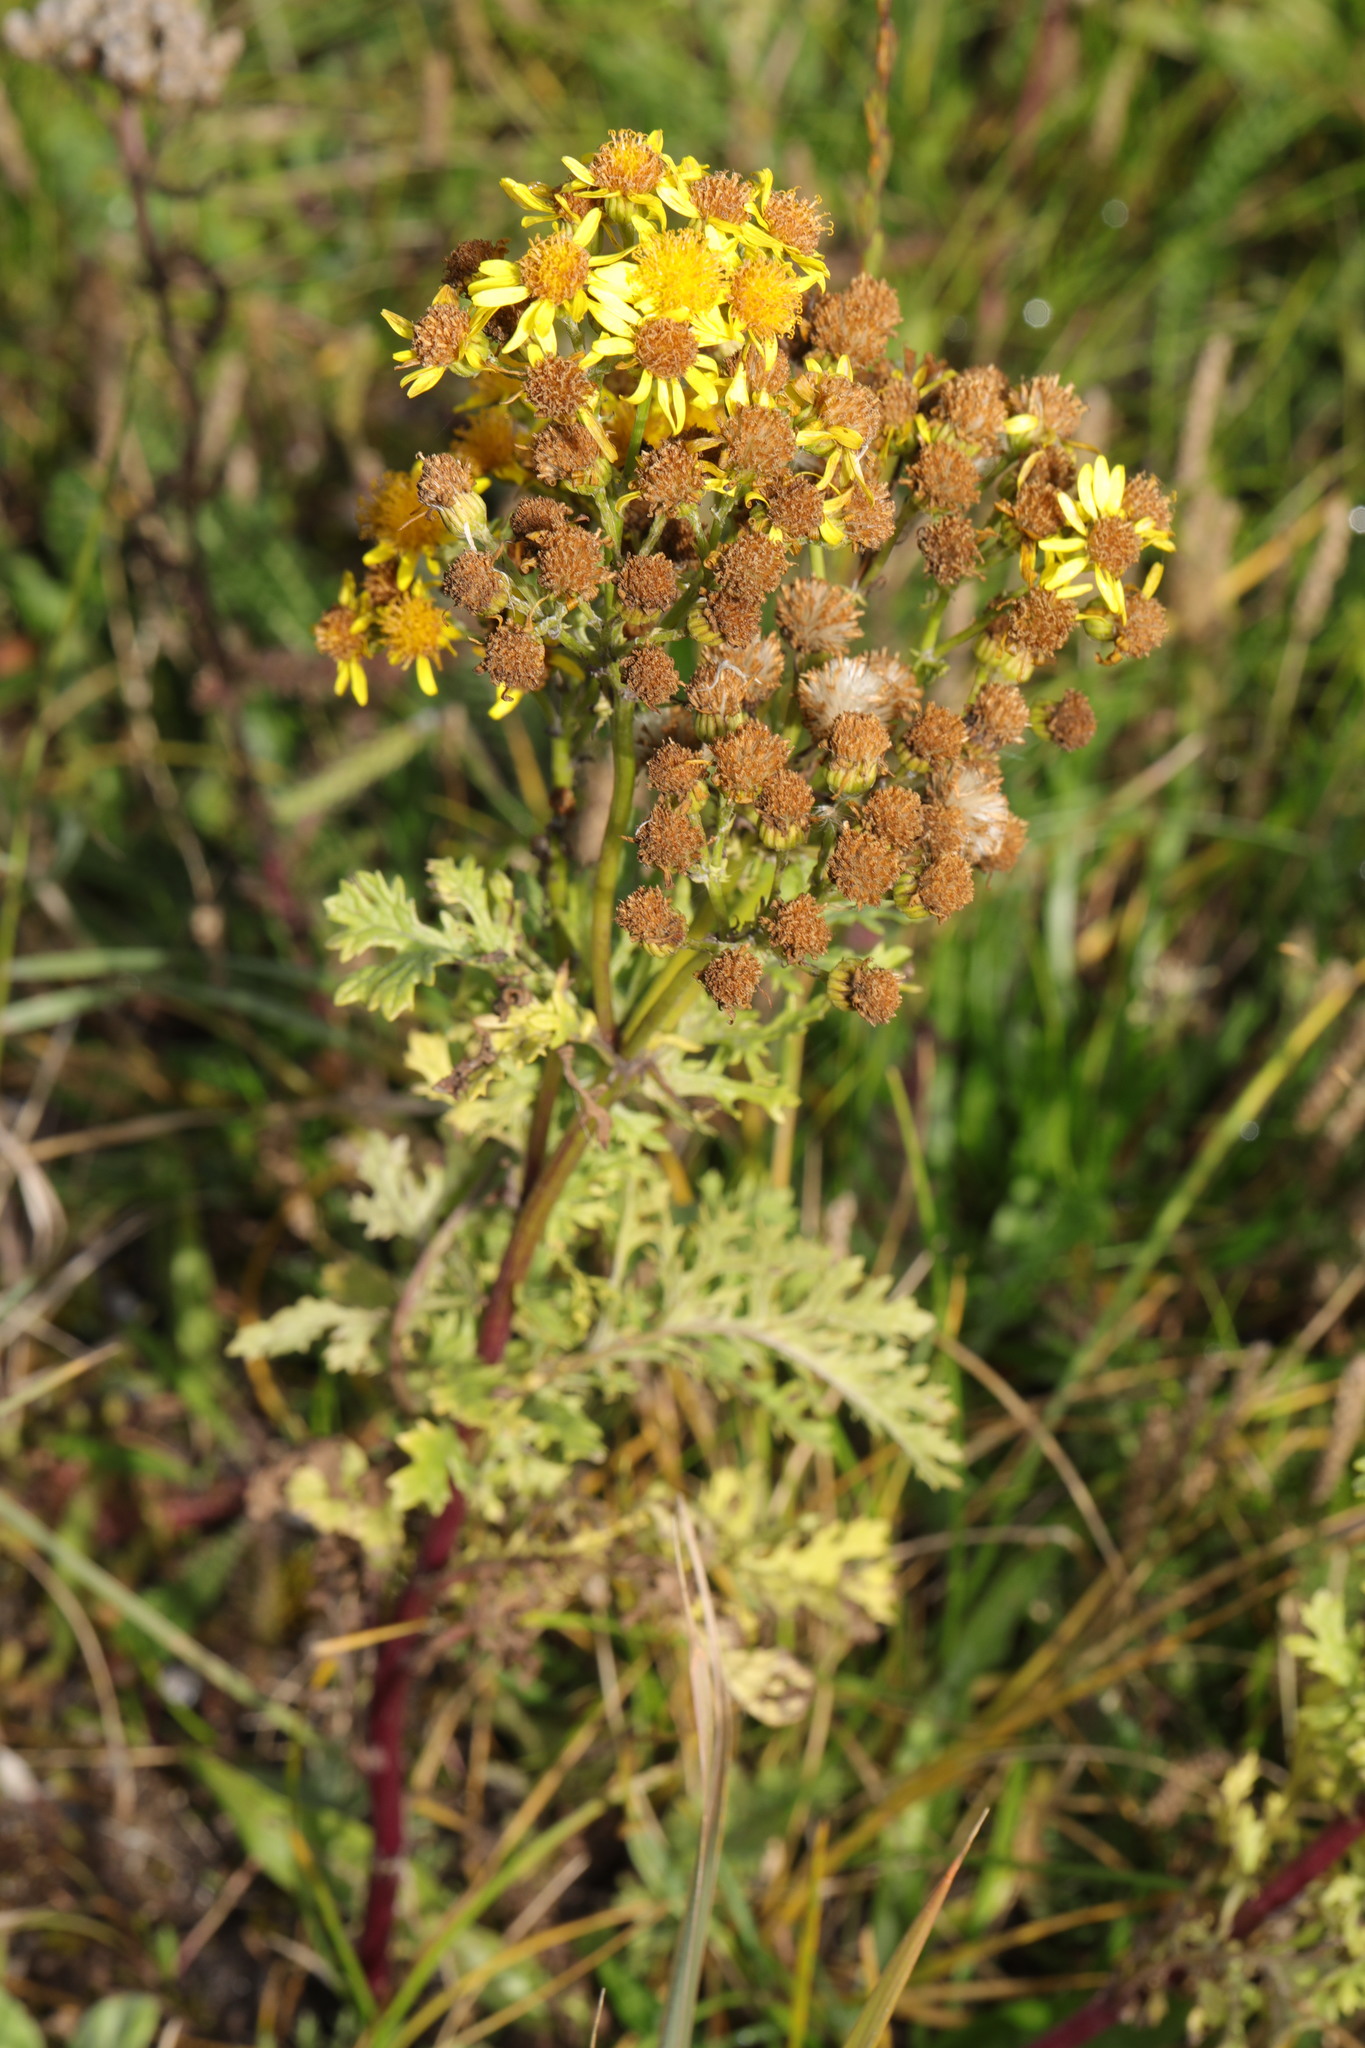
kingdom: Plantae
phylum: Tracheophyta
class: Magnoliopsida
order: Asterales
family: Asteraceae
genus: Jacobaea
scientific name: Jacobaea vulgaris
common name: Stinking willie
